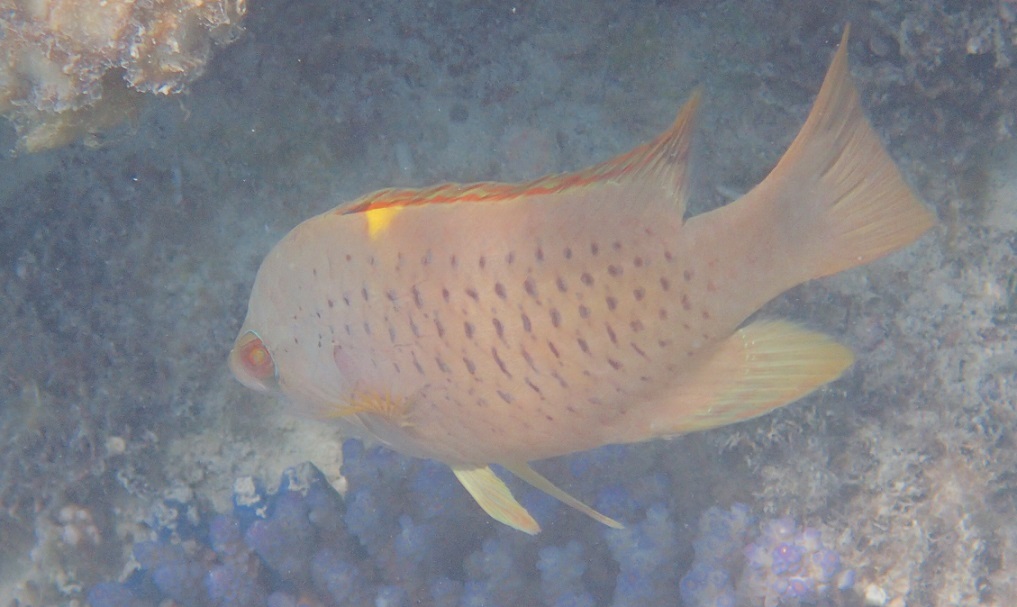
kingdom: Animalia
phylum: Chordata
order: Perciformes
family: Labridae
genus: Epibulus
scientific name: Epibulus brevis
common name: Dwarf slingjaw wrasse
